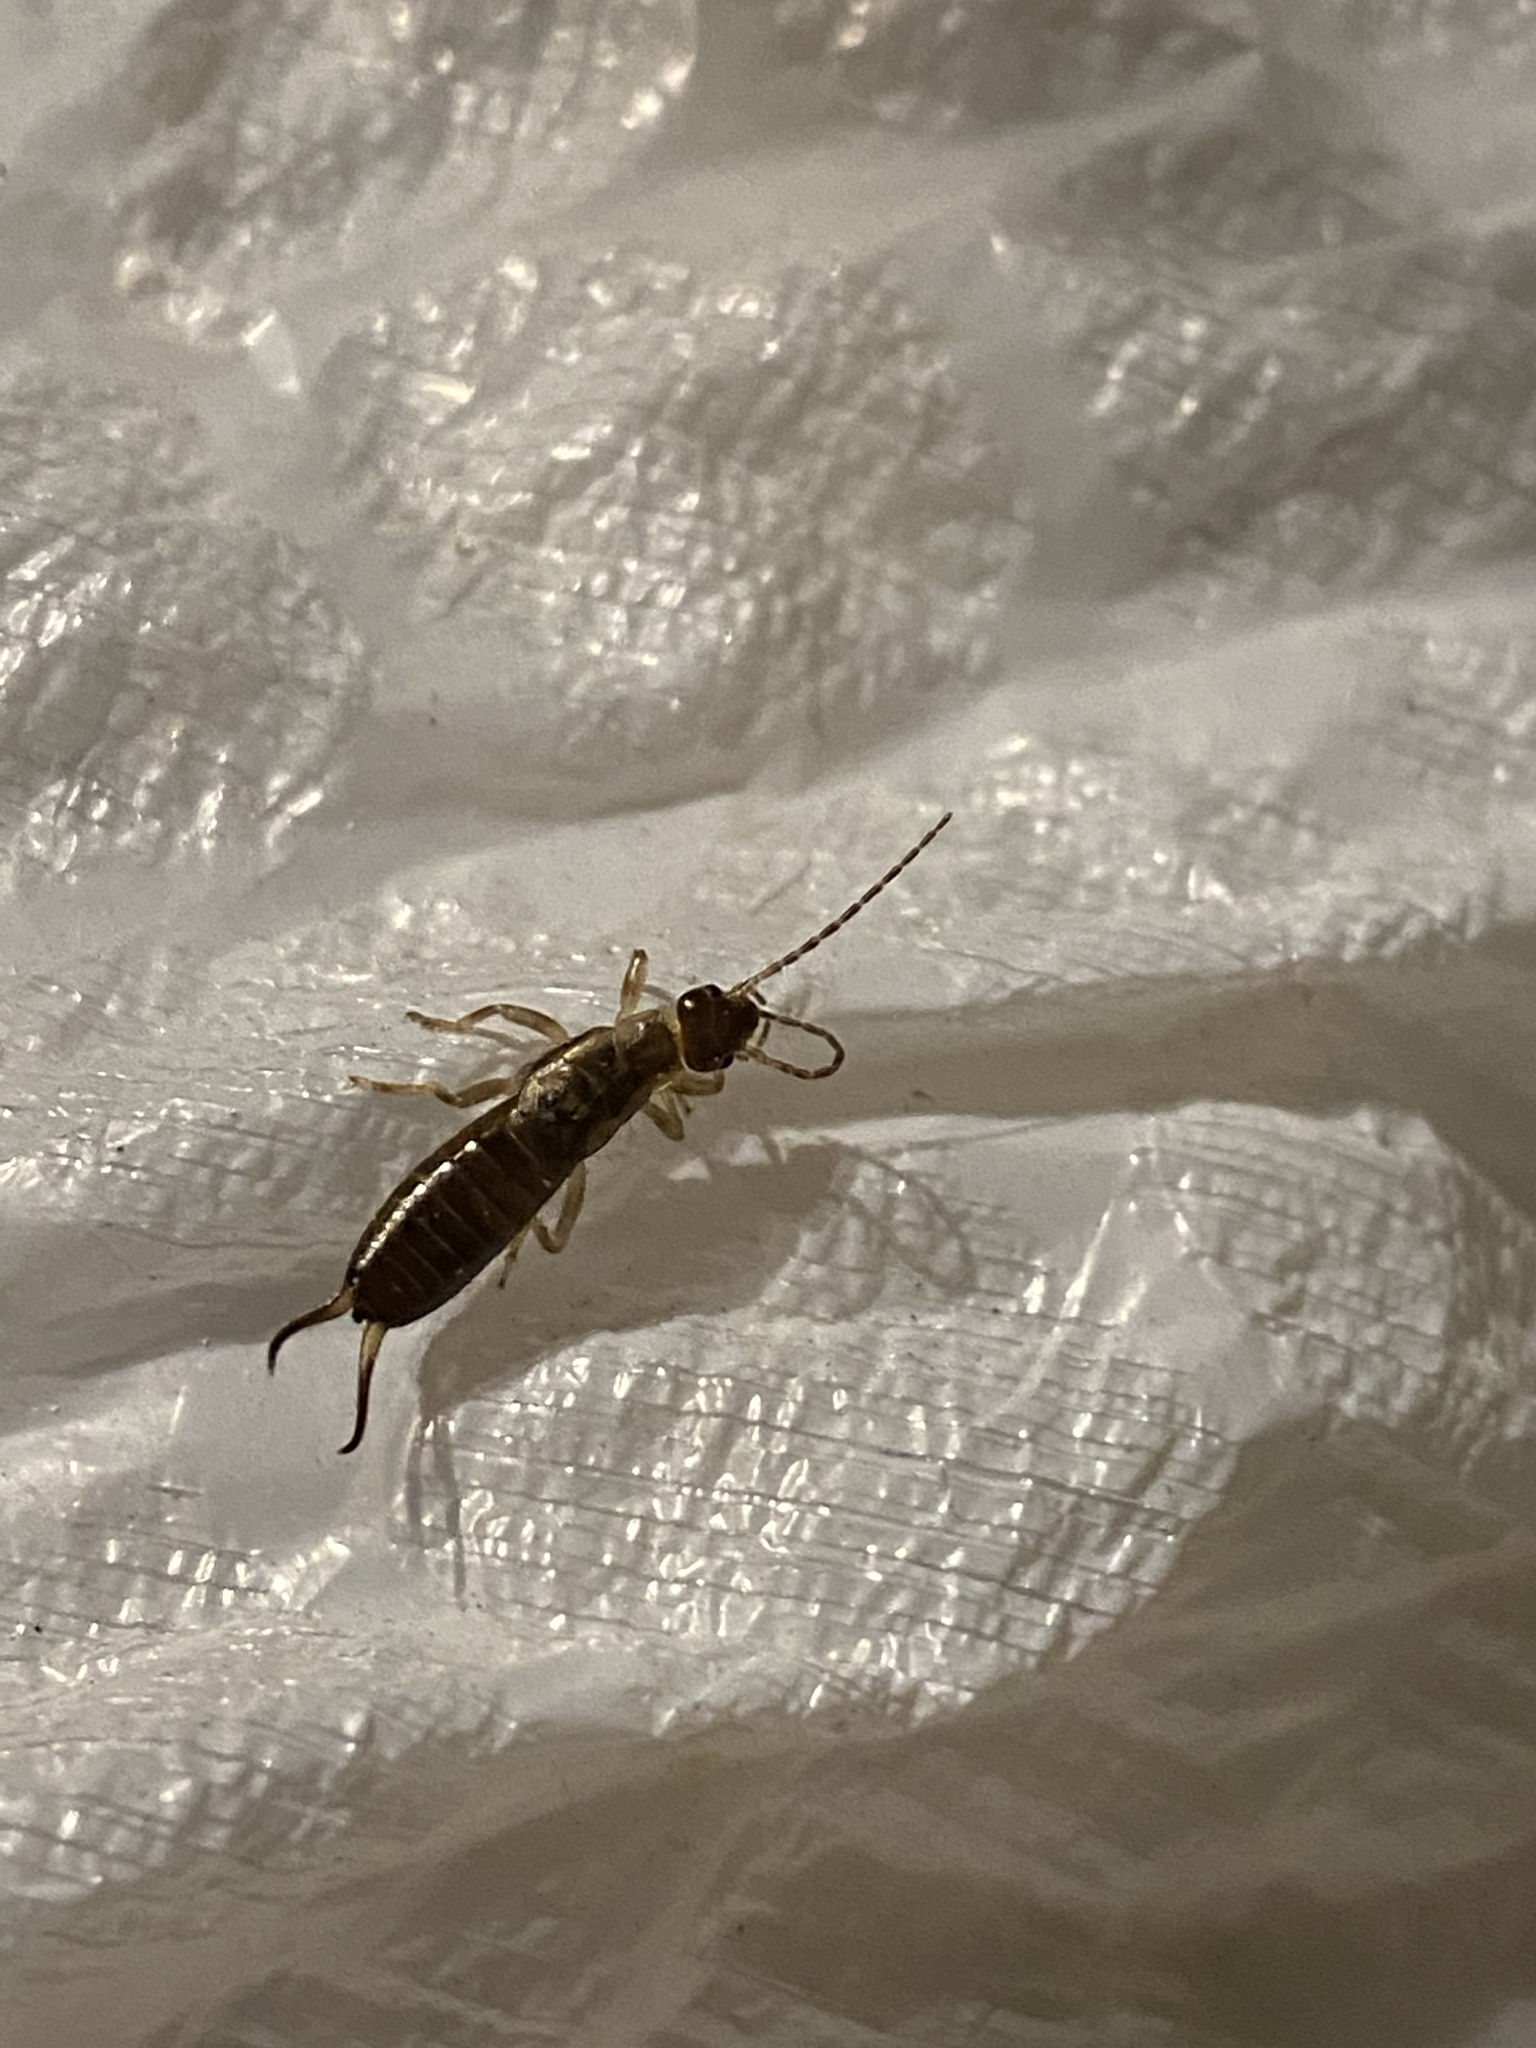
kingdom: Animalia
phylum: Arthropoda
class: Insecta
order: Dermaptera
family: Forficulidae
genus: Forficula
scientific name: Forficula
